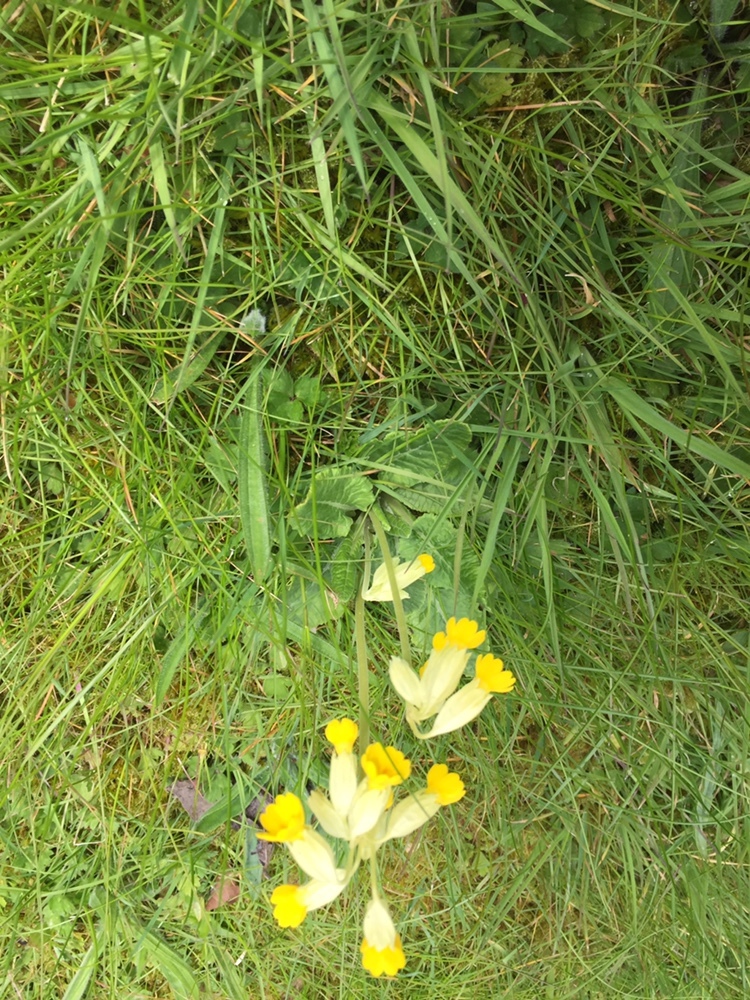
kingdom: Plantae
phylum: Tracheophyta
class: Magnoliopsida
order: Ericales
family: Primulaceae
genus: Primula
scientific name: Primula veris
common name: Cowslip
